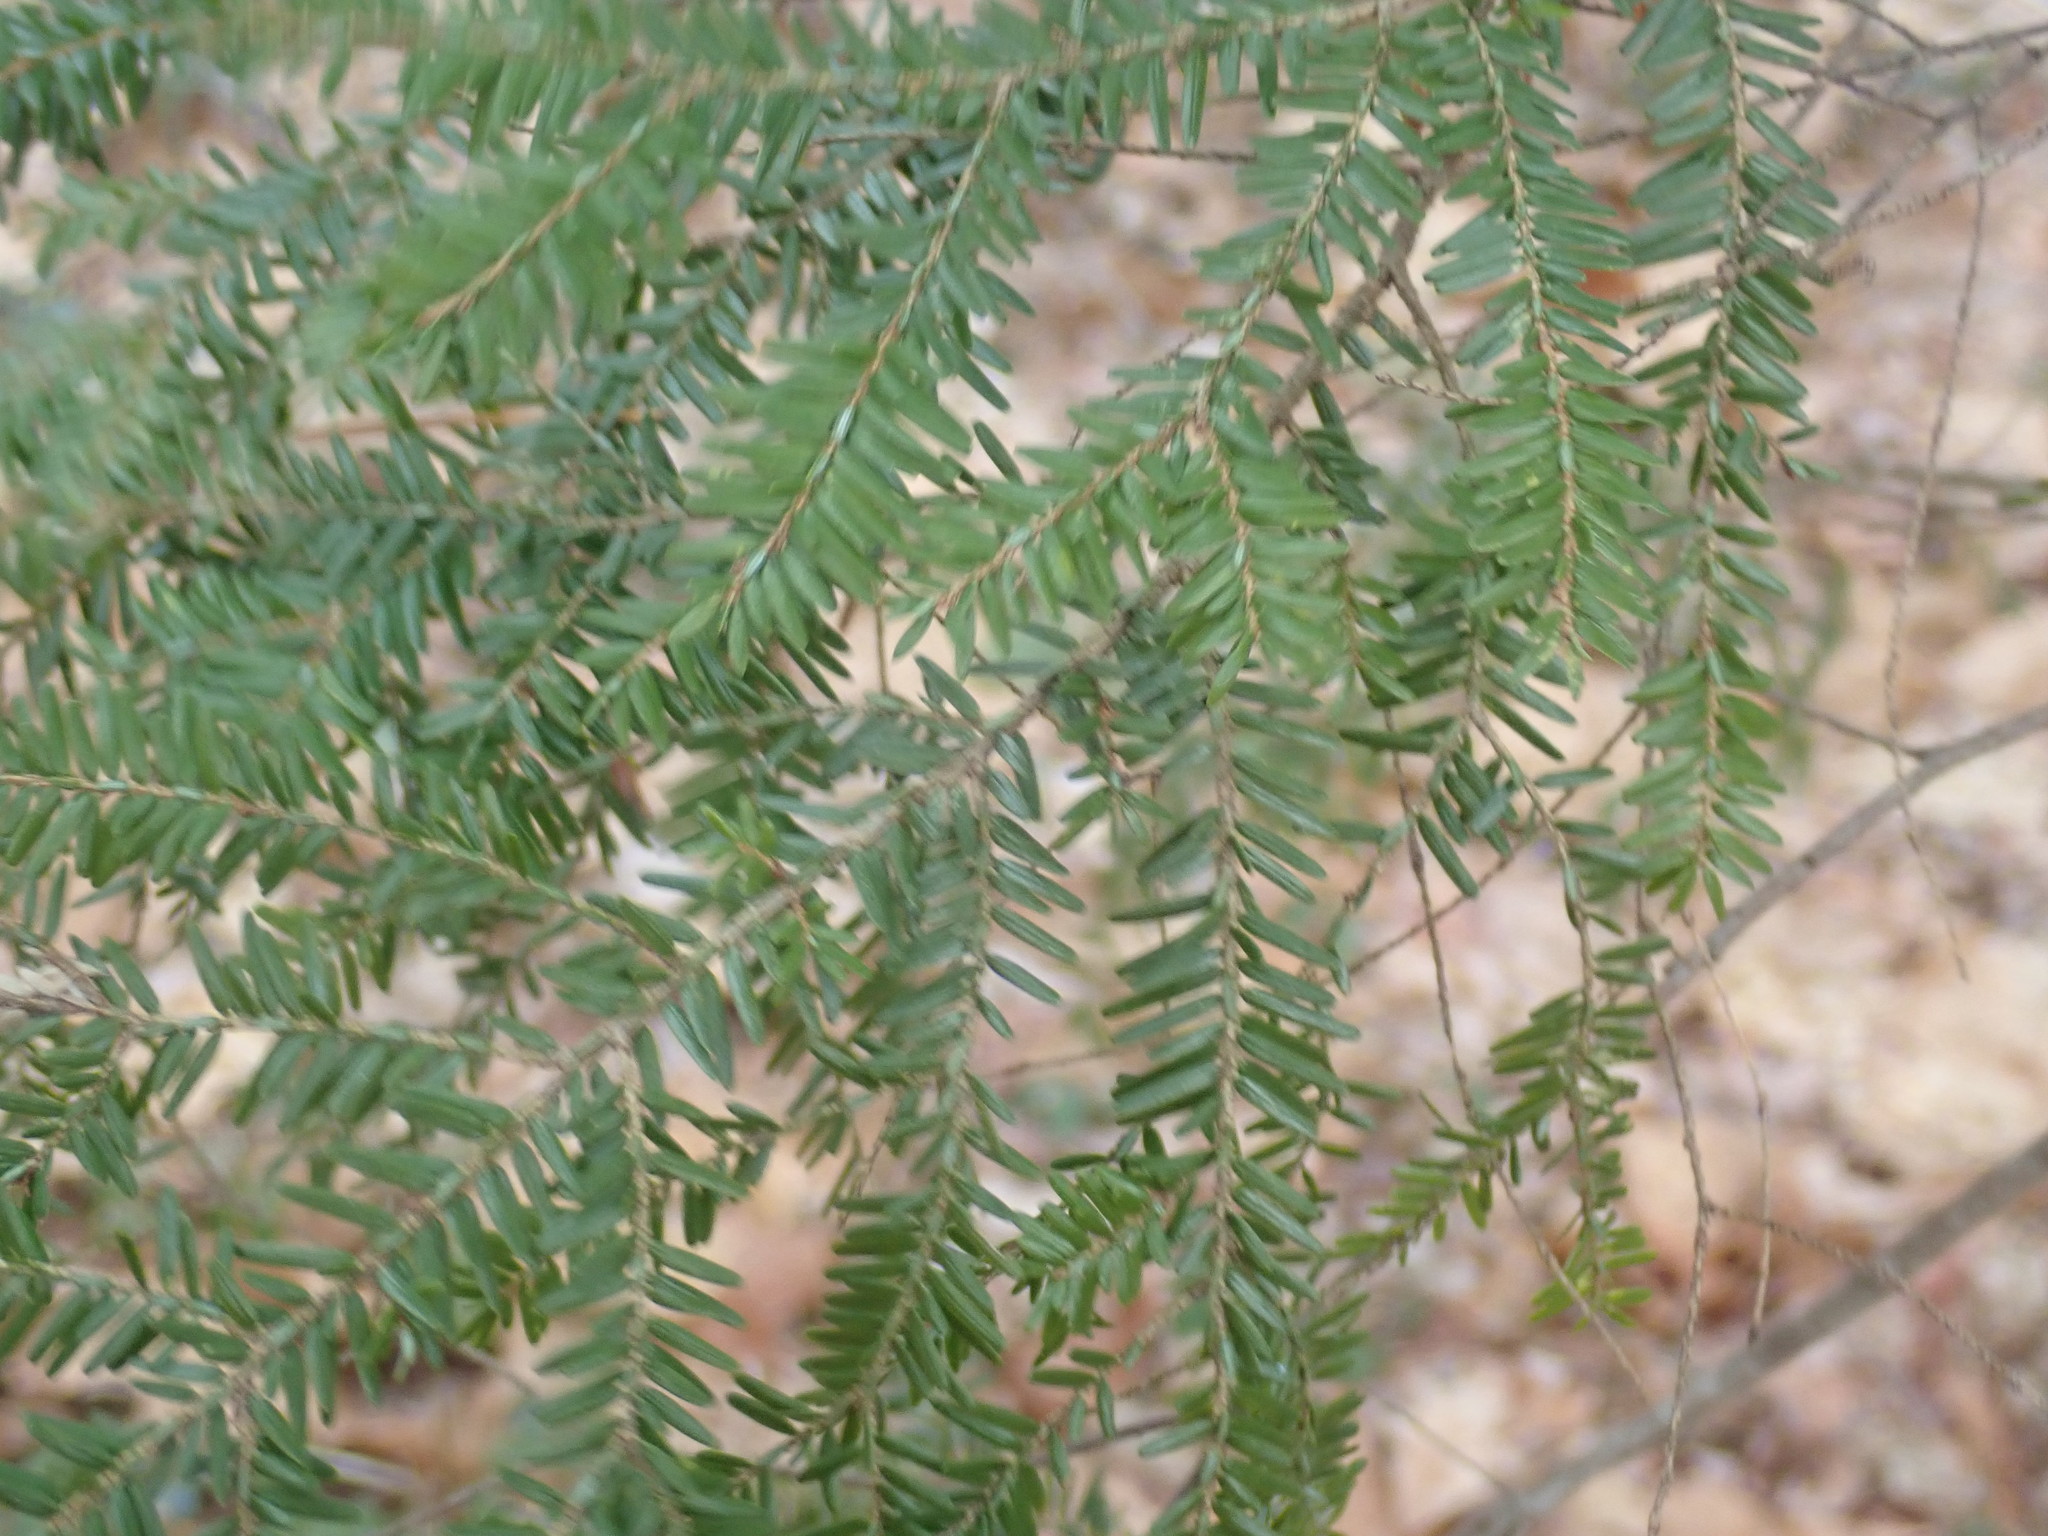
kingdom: Plantae
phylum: Tracheophyta
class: Pinopsida
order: Pinales
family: Pinaceae
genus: Tsuga
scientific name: Tsuga canadensis
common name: Eastern hemlock
